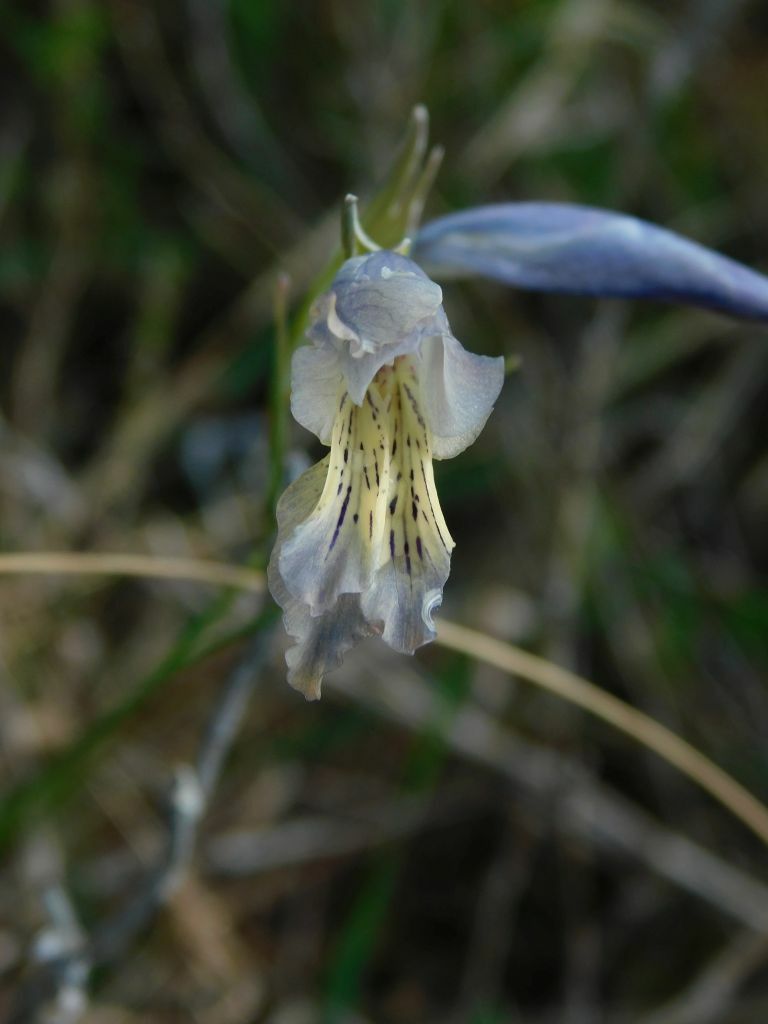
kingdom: Plantae
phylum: Tracheophyta
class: Liliopsida
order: Asparagales
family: Iridaceae
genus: Gladiolus
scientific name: Gladiolus gracilis
